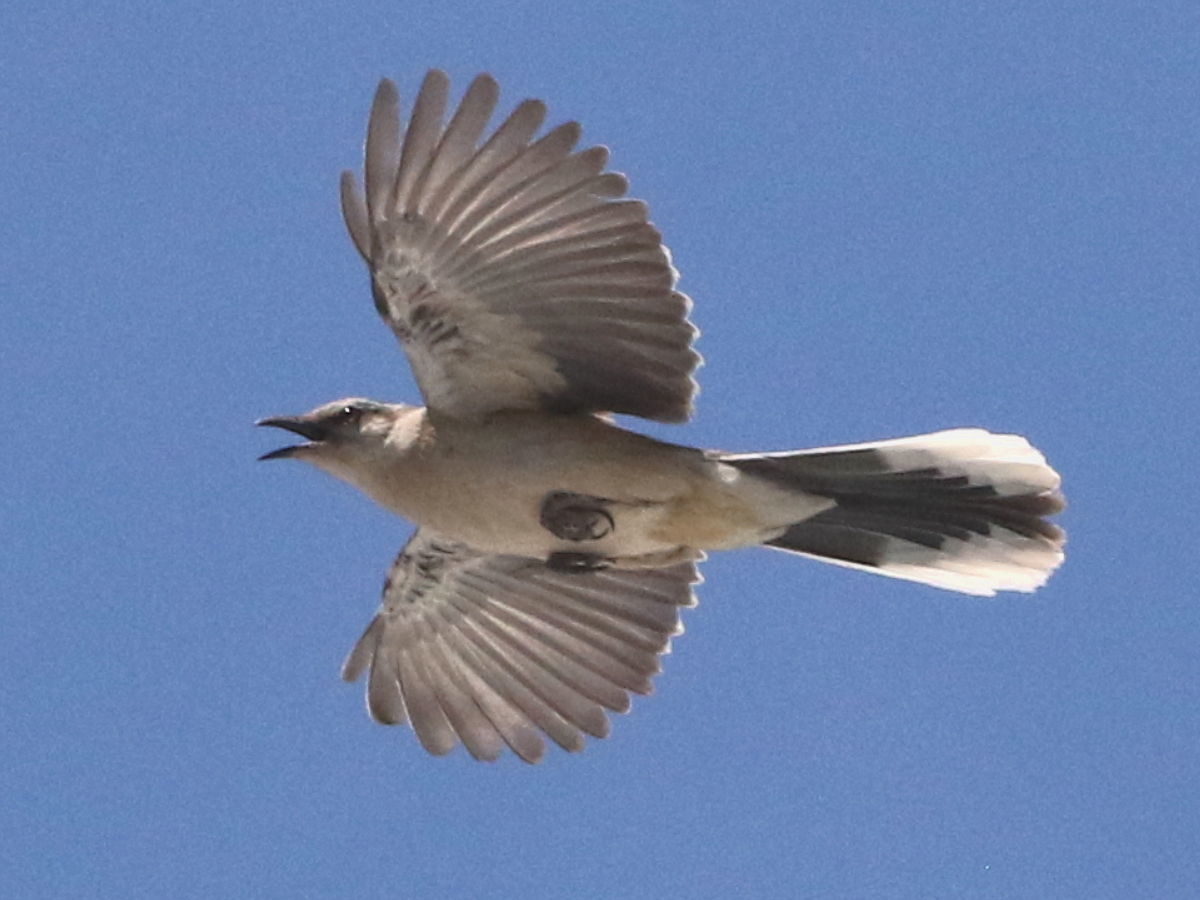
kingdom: Animalia
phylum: Chordata
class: Aves
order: Passeriformes
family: Mimidae
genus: Mimus
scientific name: Mimus saturninus
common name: Chalk-browed mockingbird
